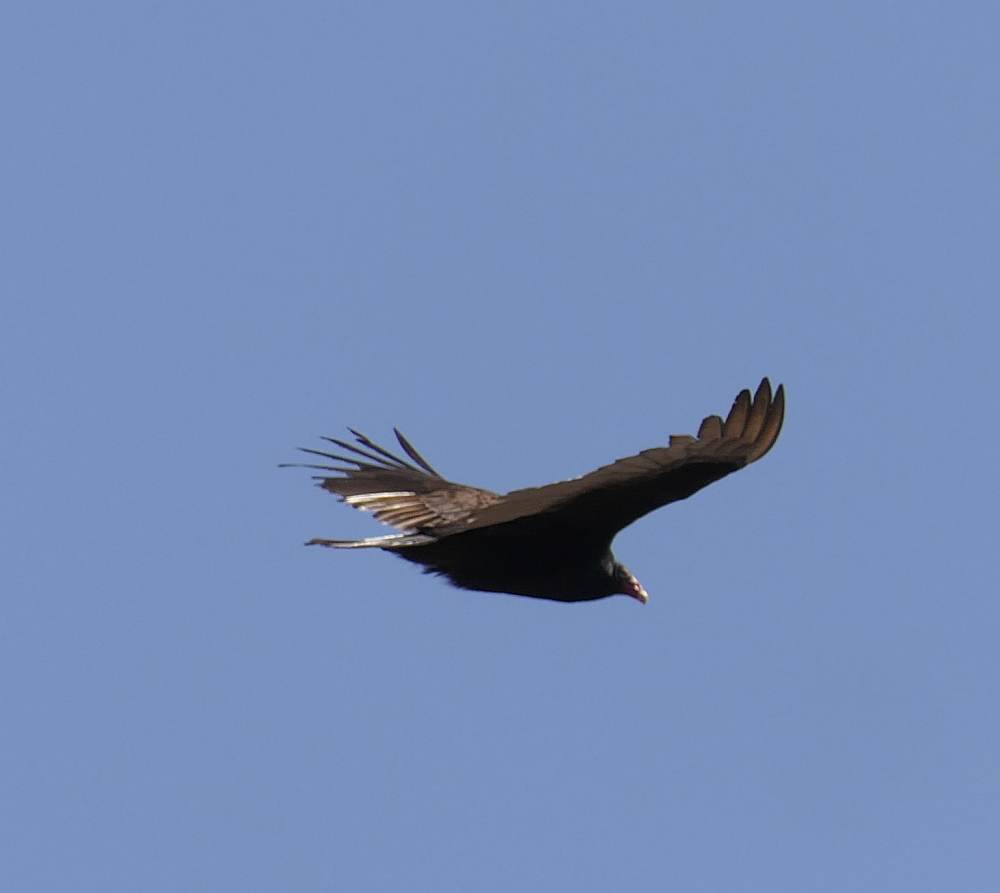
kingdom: Animalia
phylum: Chordata
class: Aves
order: Accipitriformes
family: Cathartidae
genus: Cathartes
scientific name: Cathartes aura
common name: Turkey vulture
